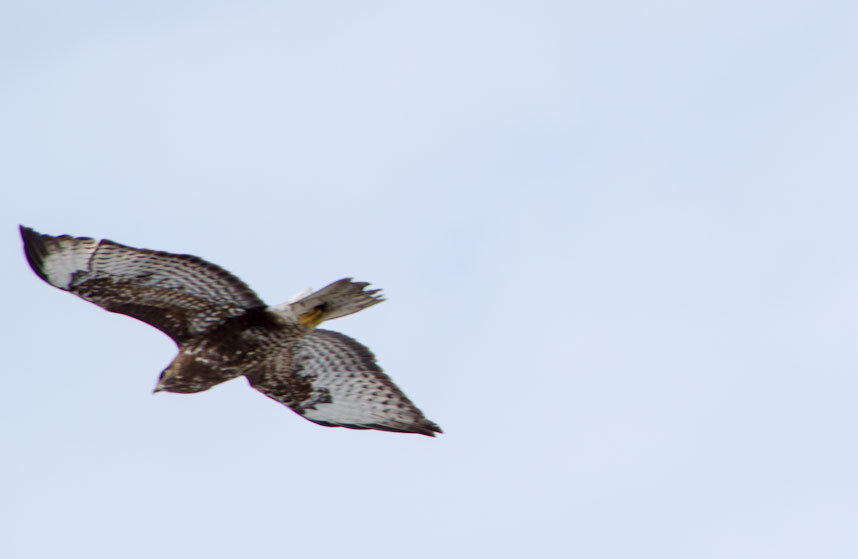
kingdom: Animalia
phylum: Chordata
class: Aves
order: Accipitriformes
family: Accipitridae
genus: Buteo
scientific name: Buteo buteo
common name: Common buzzard
